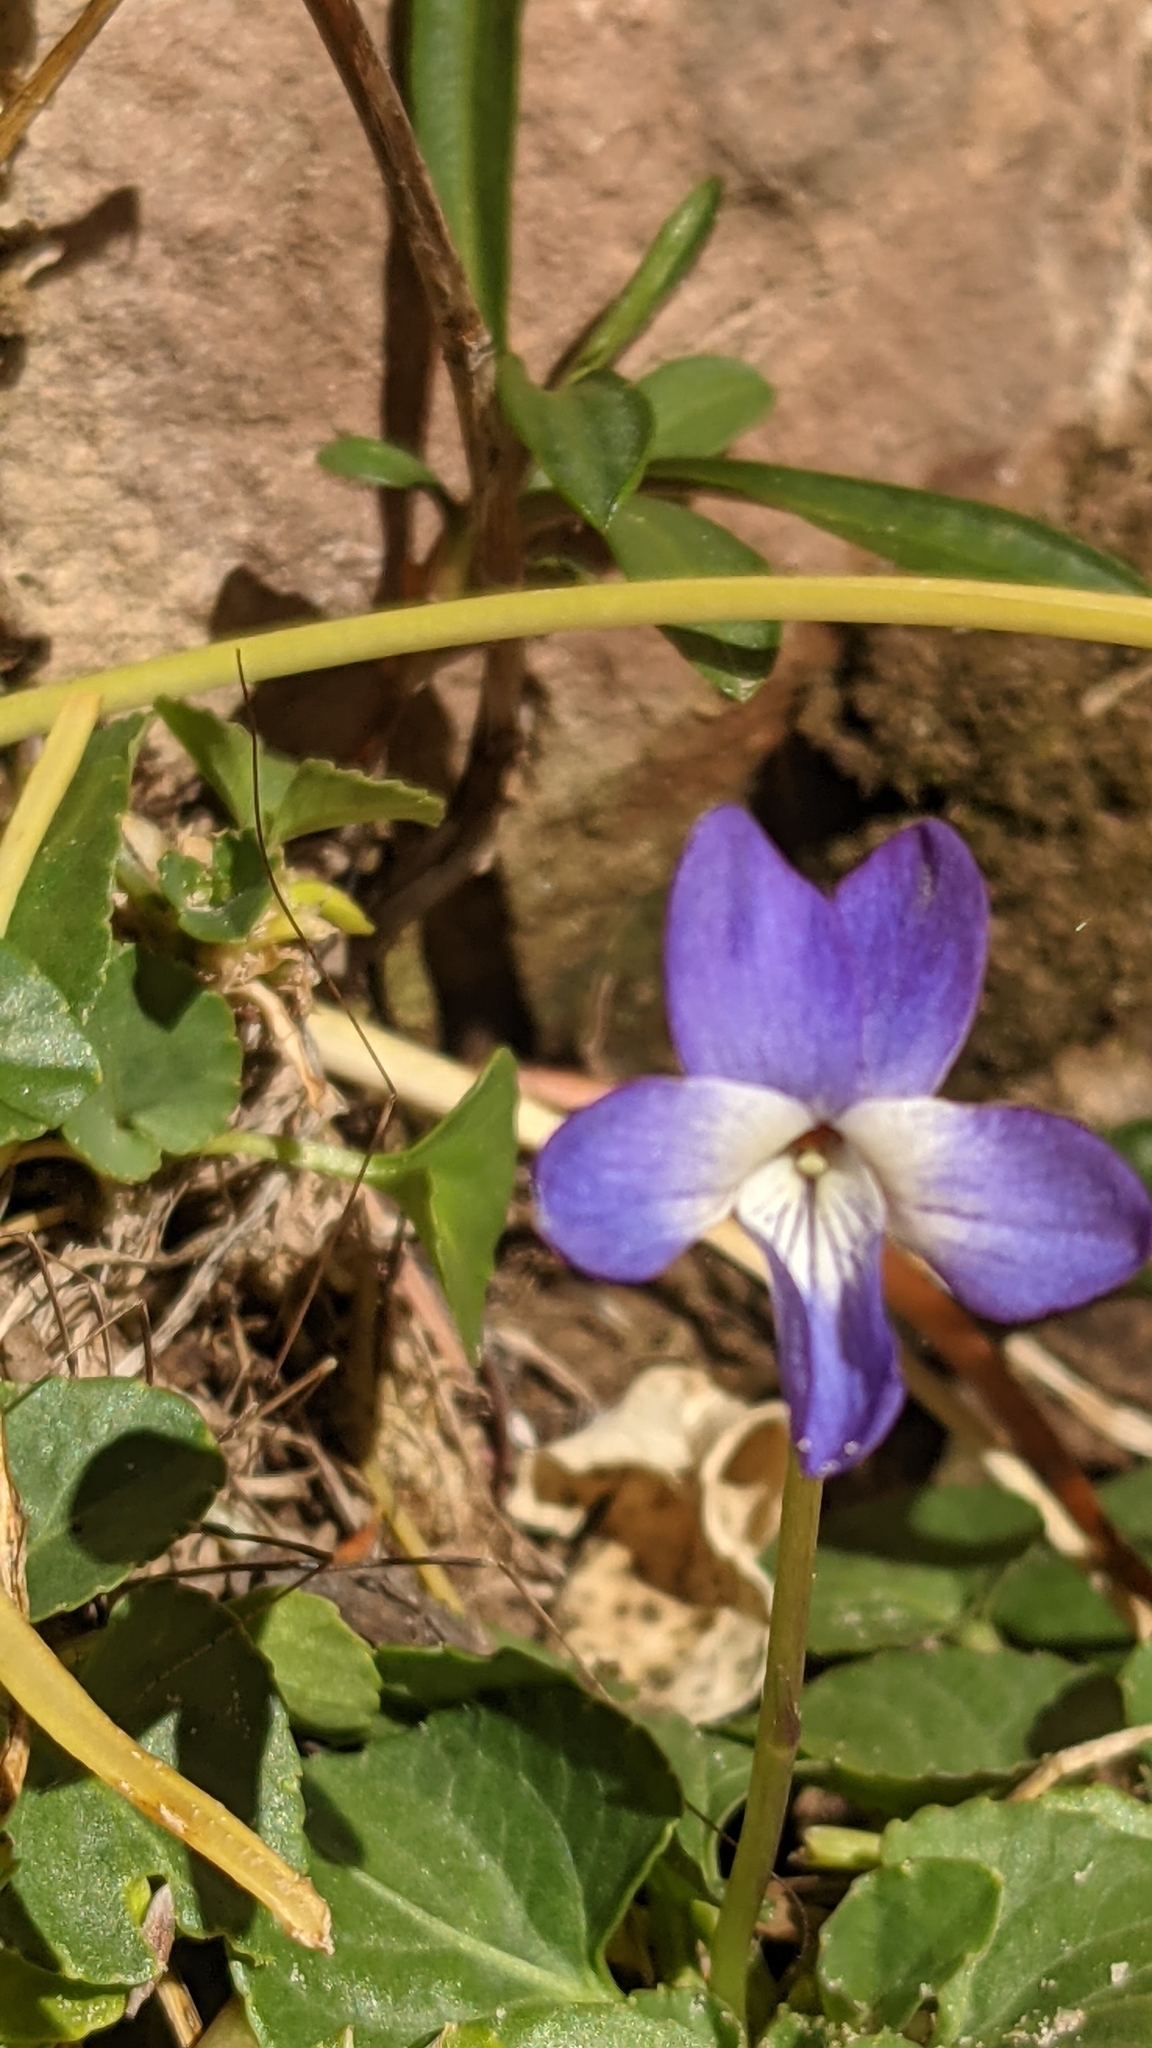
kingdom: Plantae
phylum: Tracheophyta
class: Magnoliopsida
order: Malpighiales
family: Violaceae
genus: Viola
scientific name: Viola clauseniana
